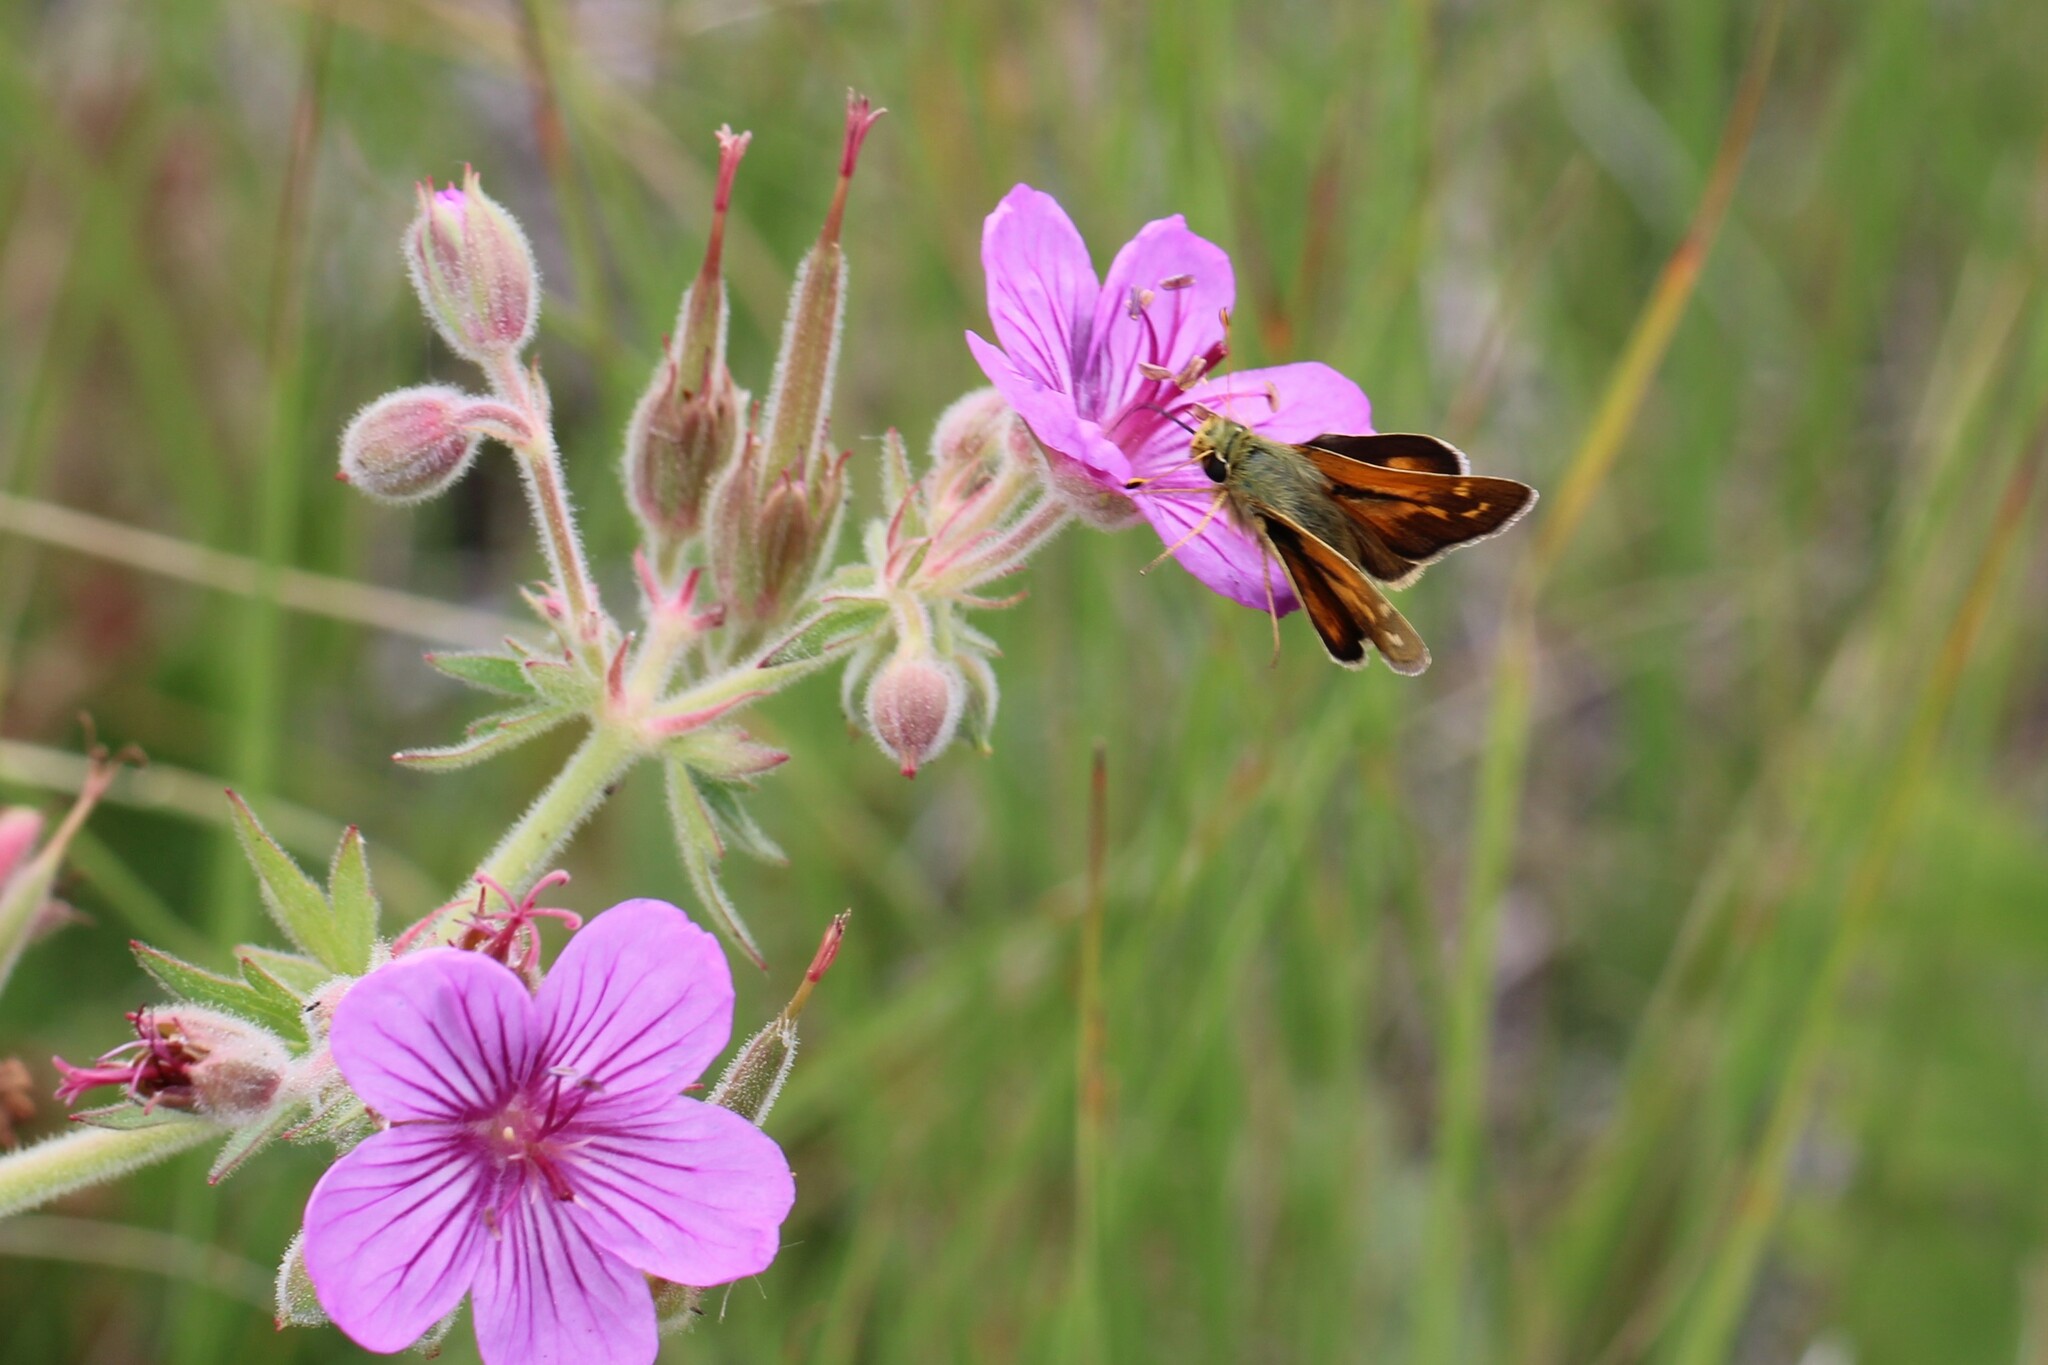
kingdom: Animalia
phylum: Arthropoda
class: Insecta
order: Lepidoptera
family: Hesperiidae
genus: Hesperia
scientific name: Hesperia comma
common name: Common branded skipper
